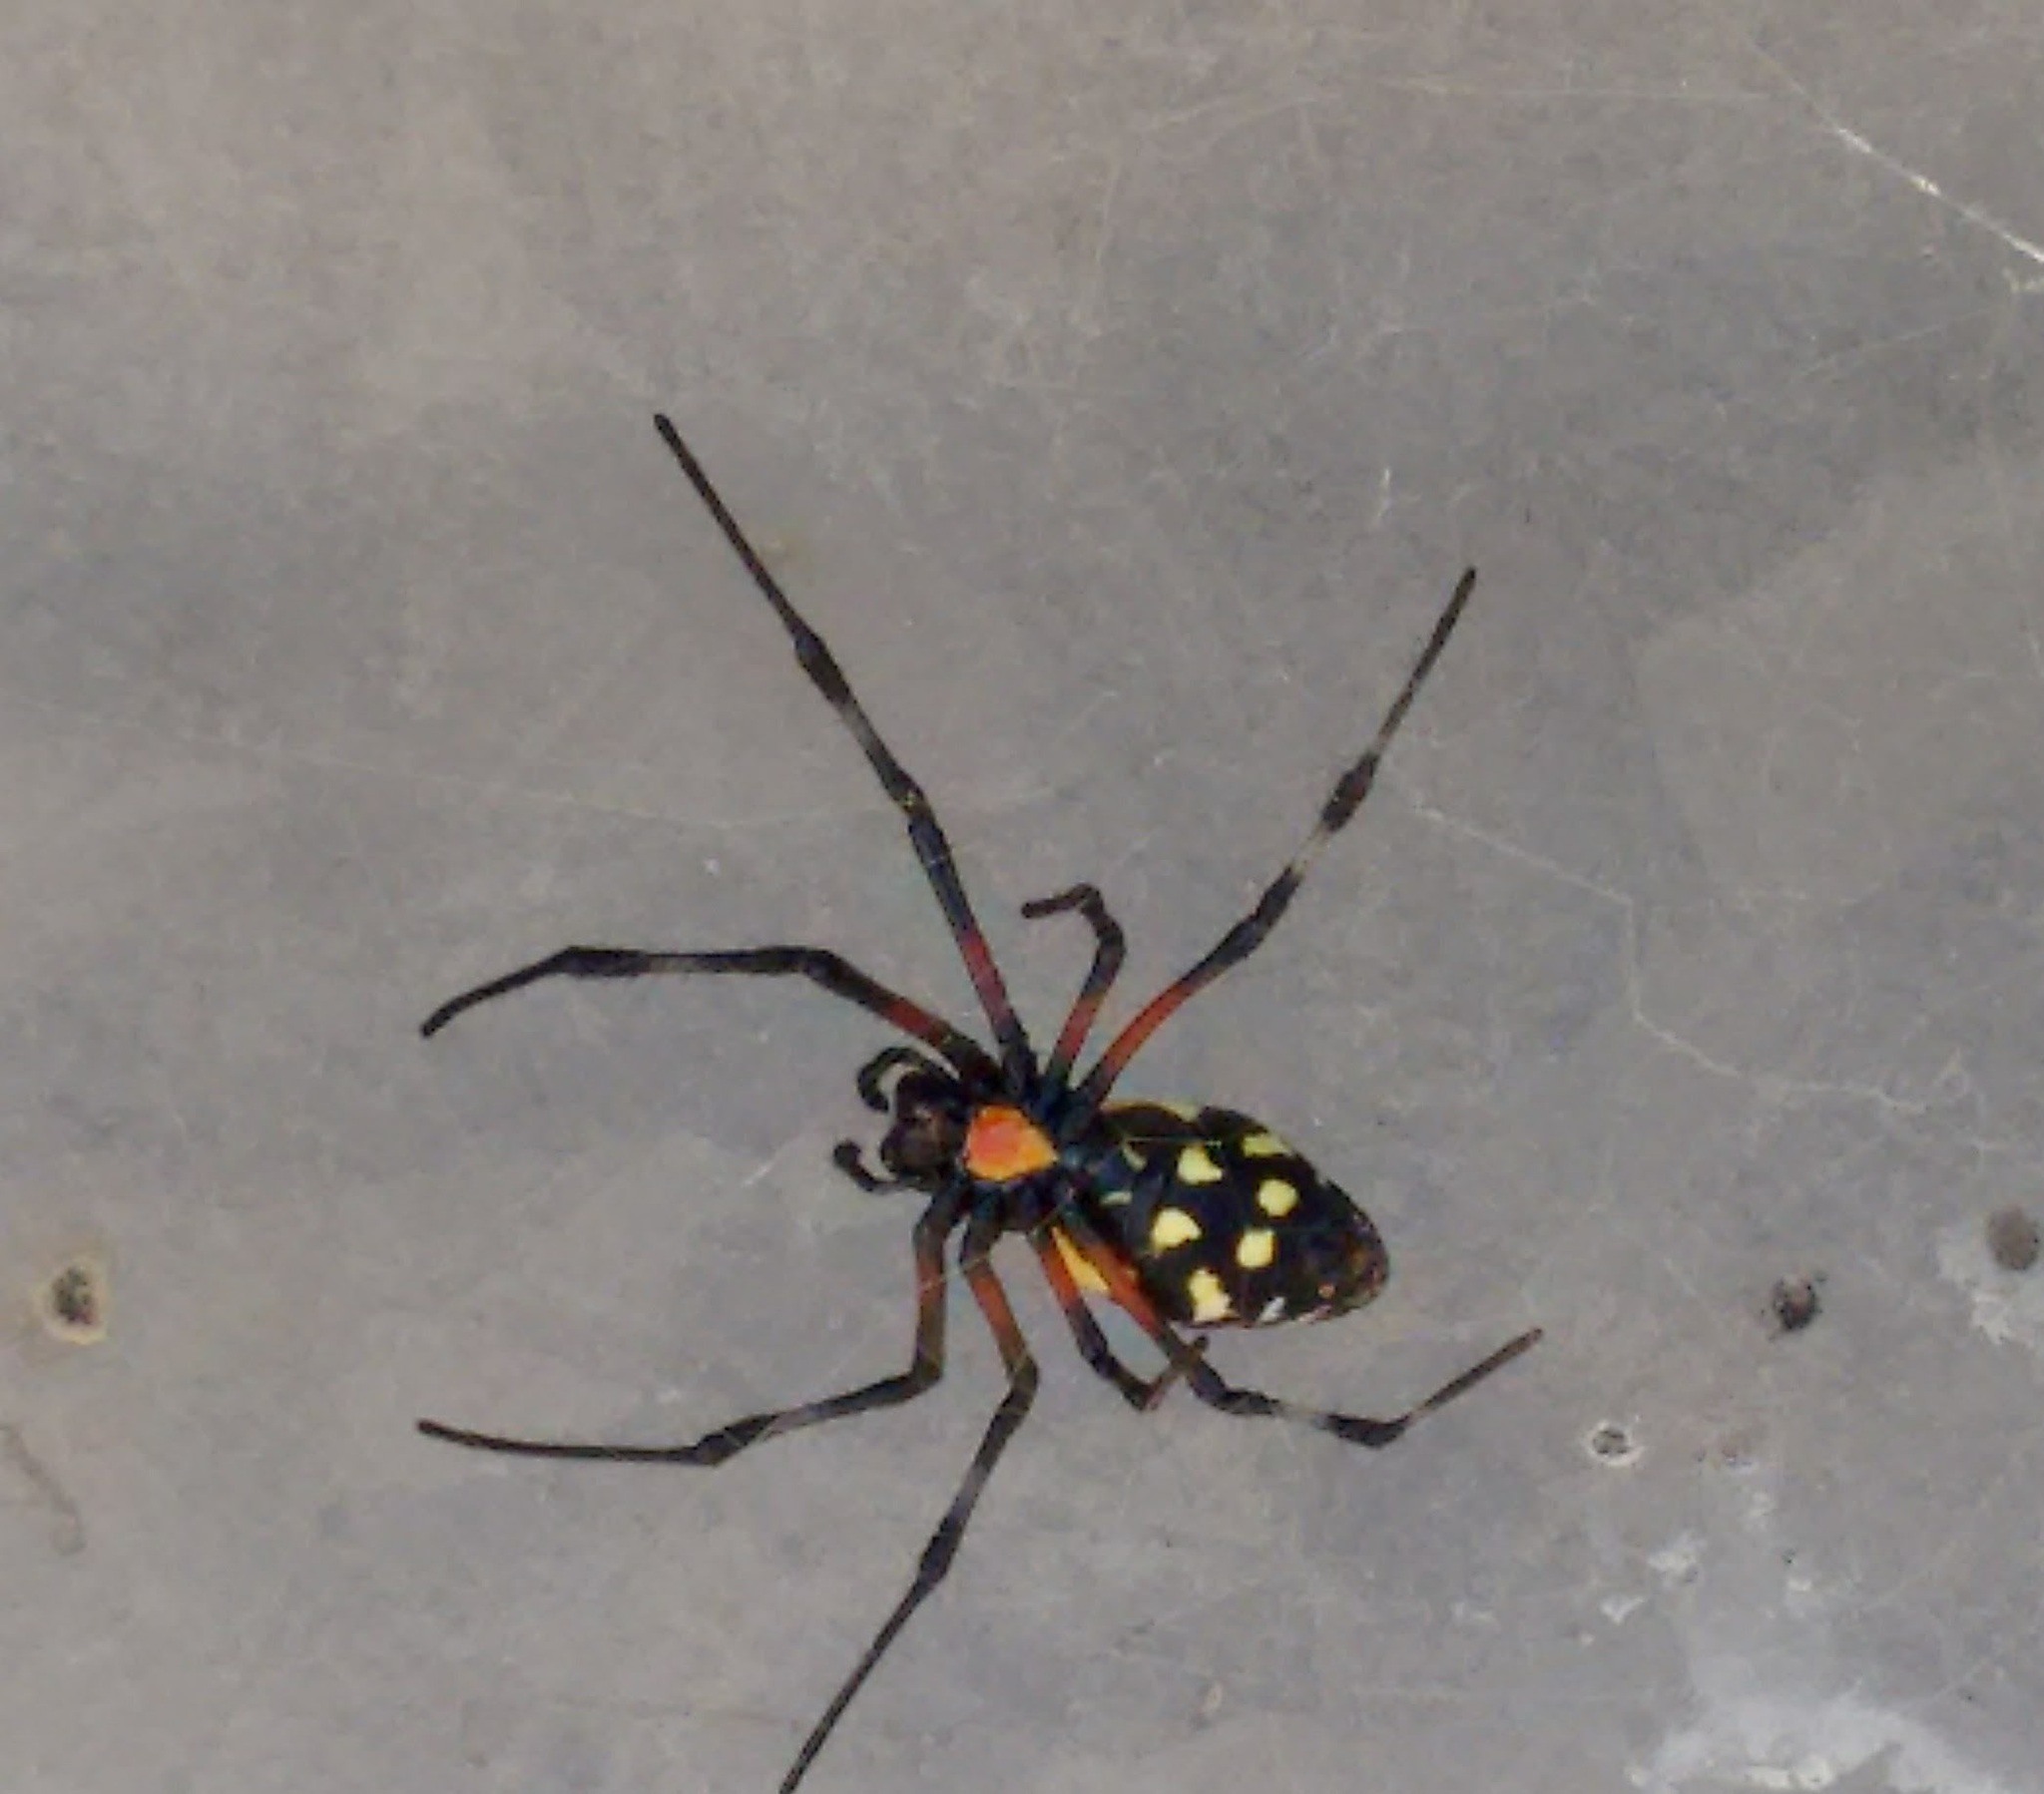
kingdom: Animalia
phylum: Arthropoda
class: Arachnida
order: Araneae
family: Araneidae
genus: Nephilingis
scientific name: Nephilingis cruentata
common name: African hermit spider
